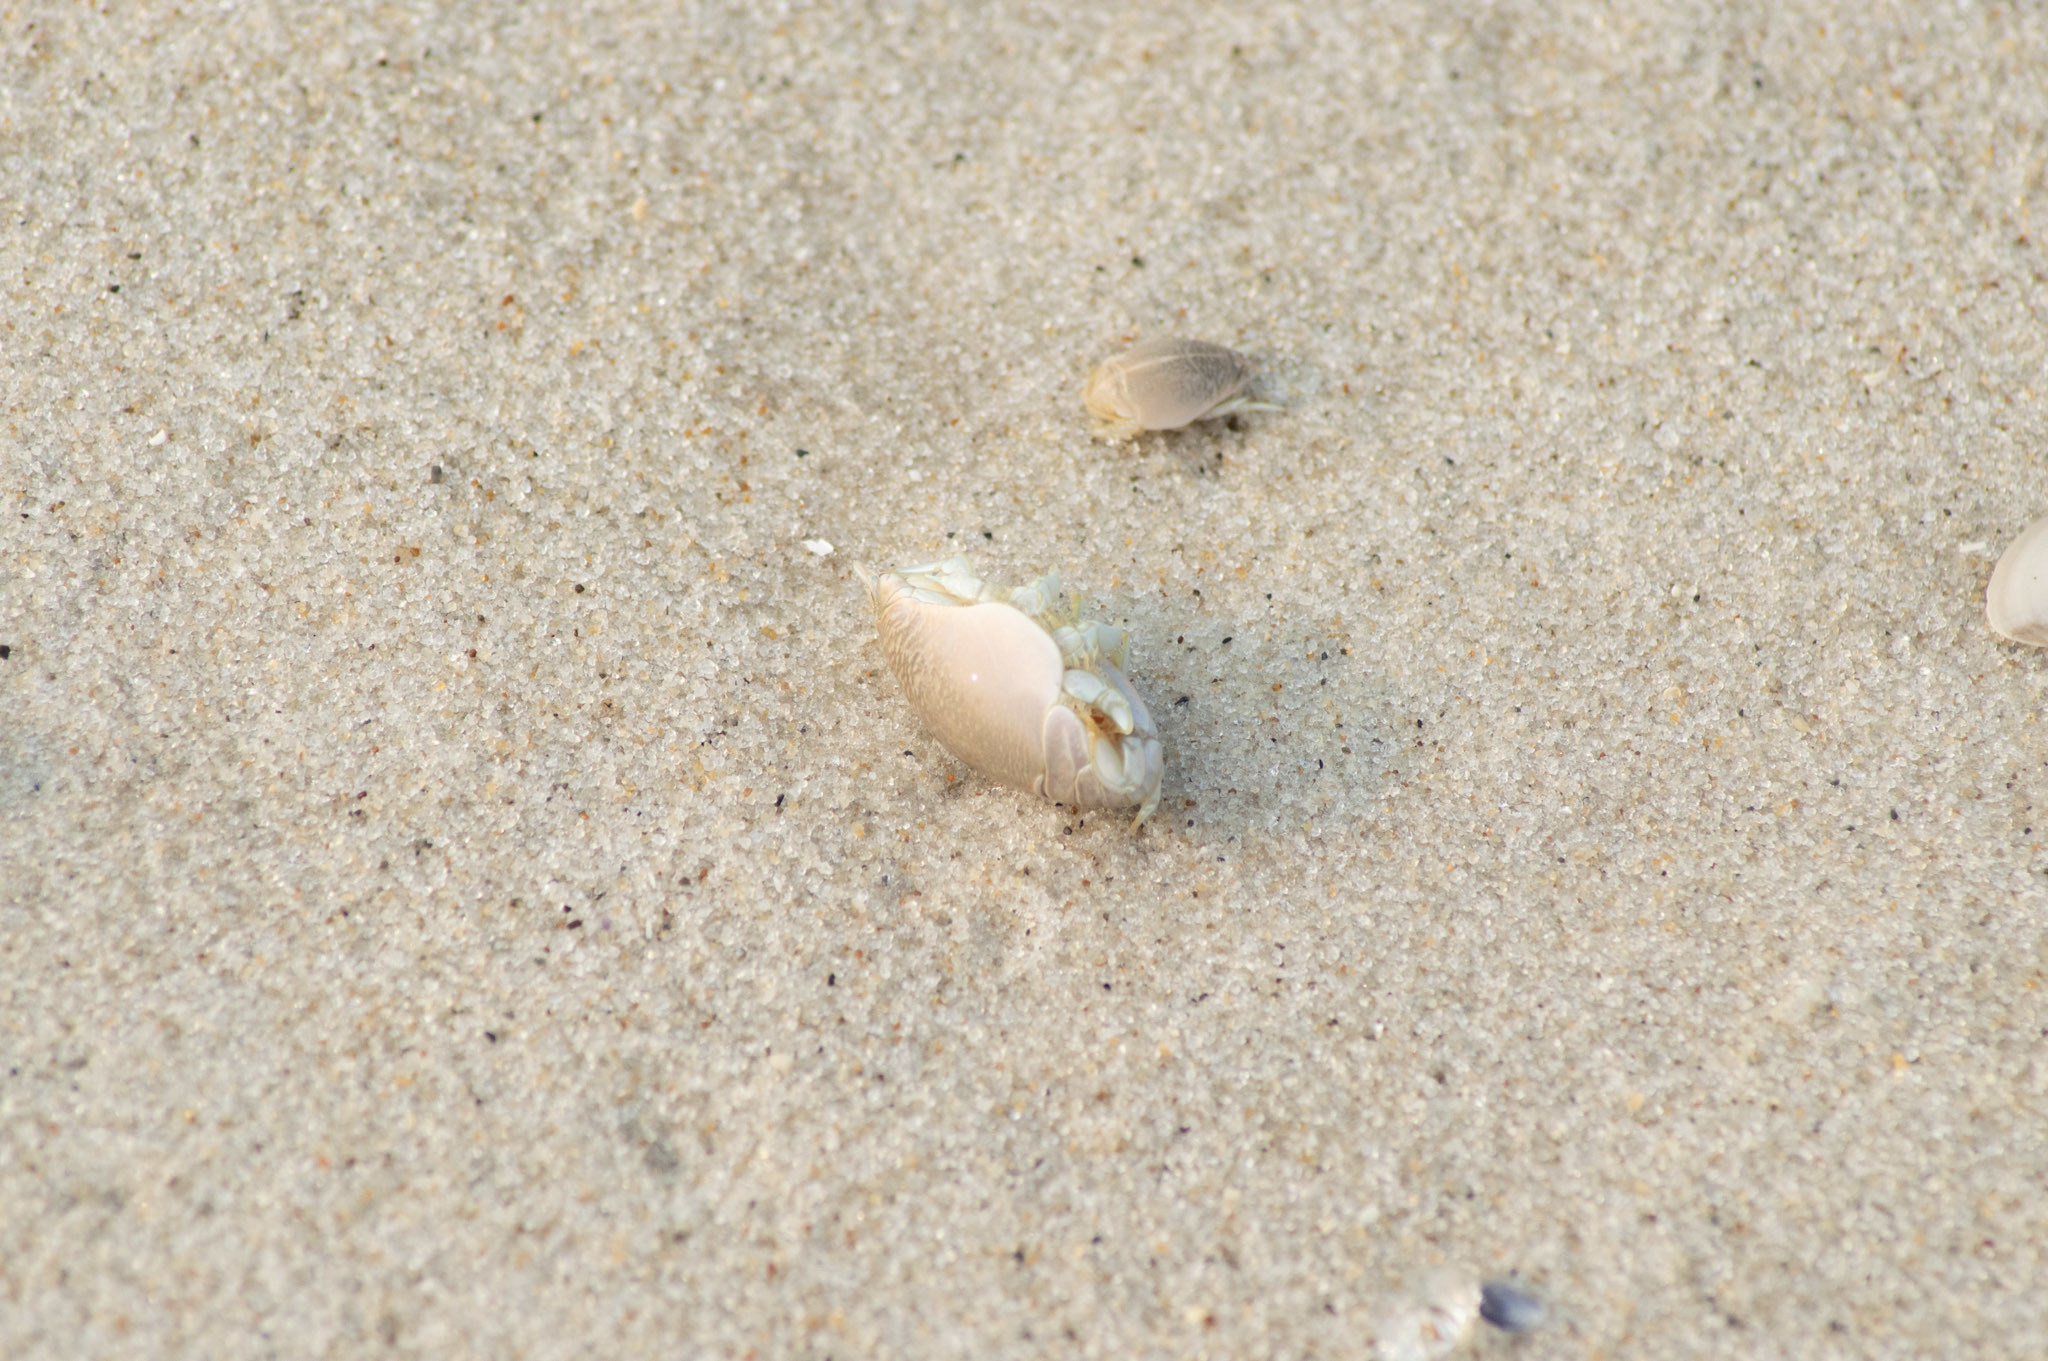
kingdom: Animalia
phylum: Arthropoda
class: Malacostraca
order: Decapoda
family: Hippidae
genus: Emerita
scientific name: Emerita talpoida
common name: Atlantic sand crab
